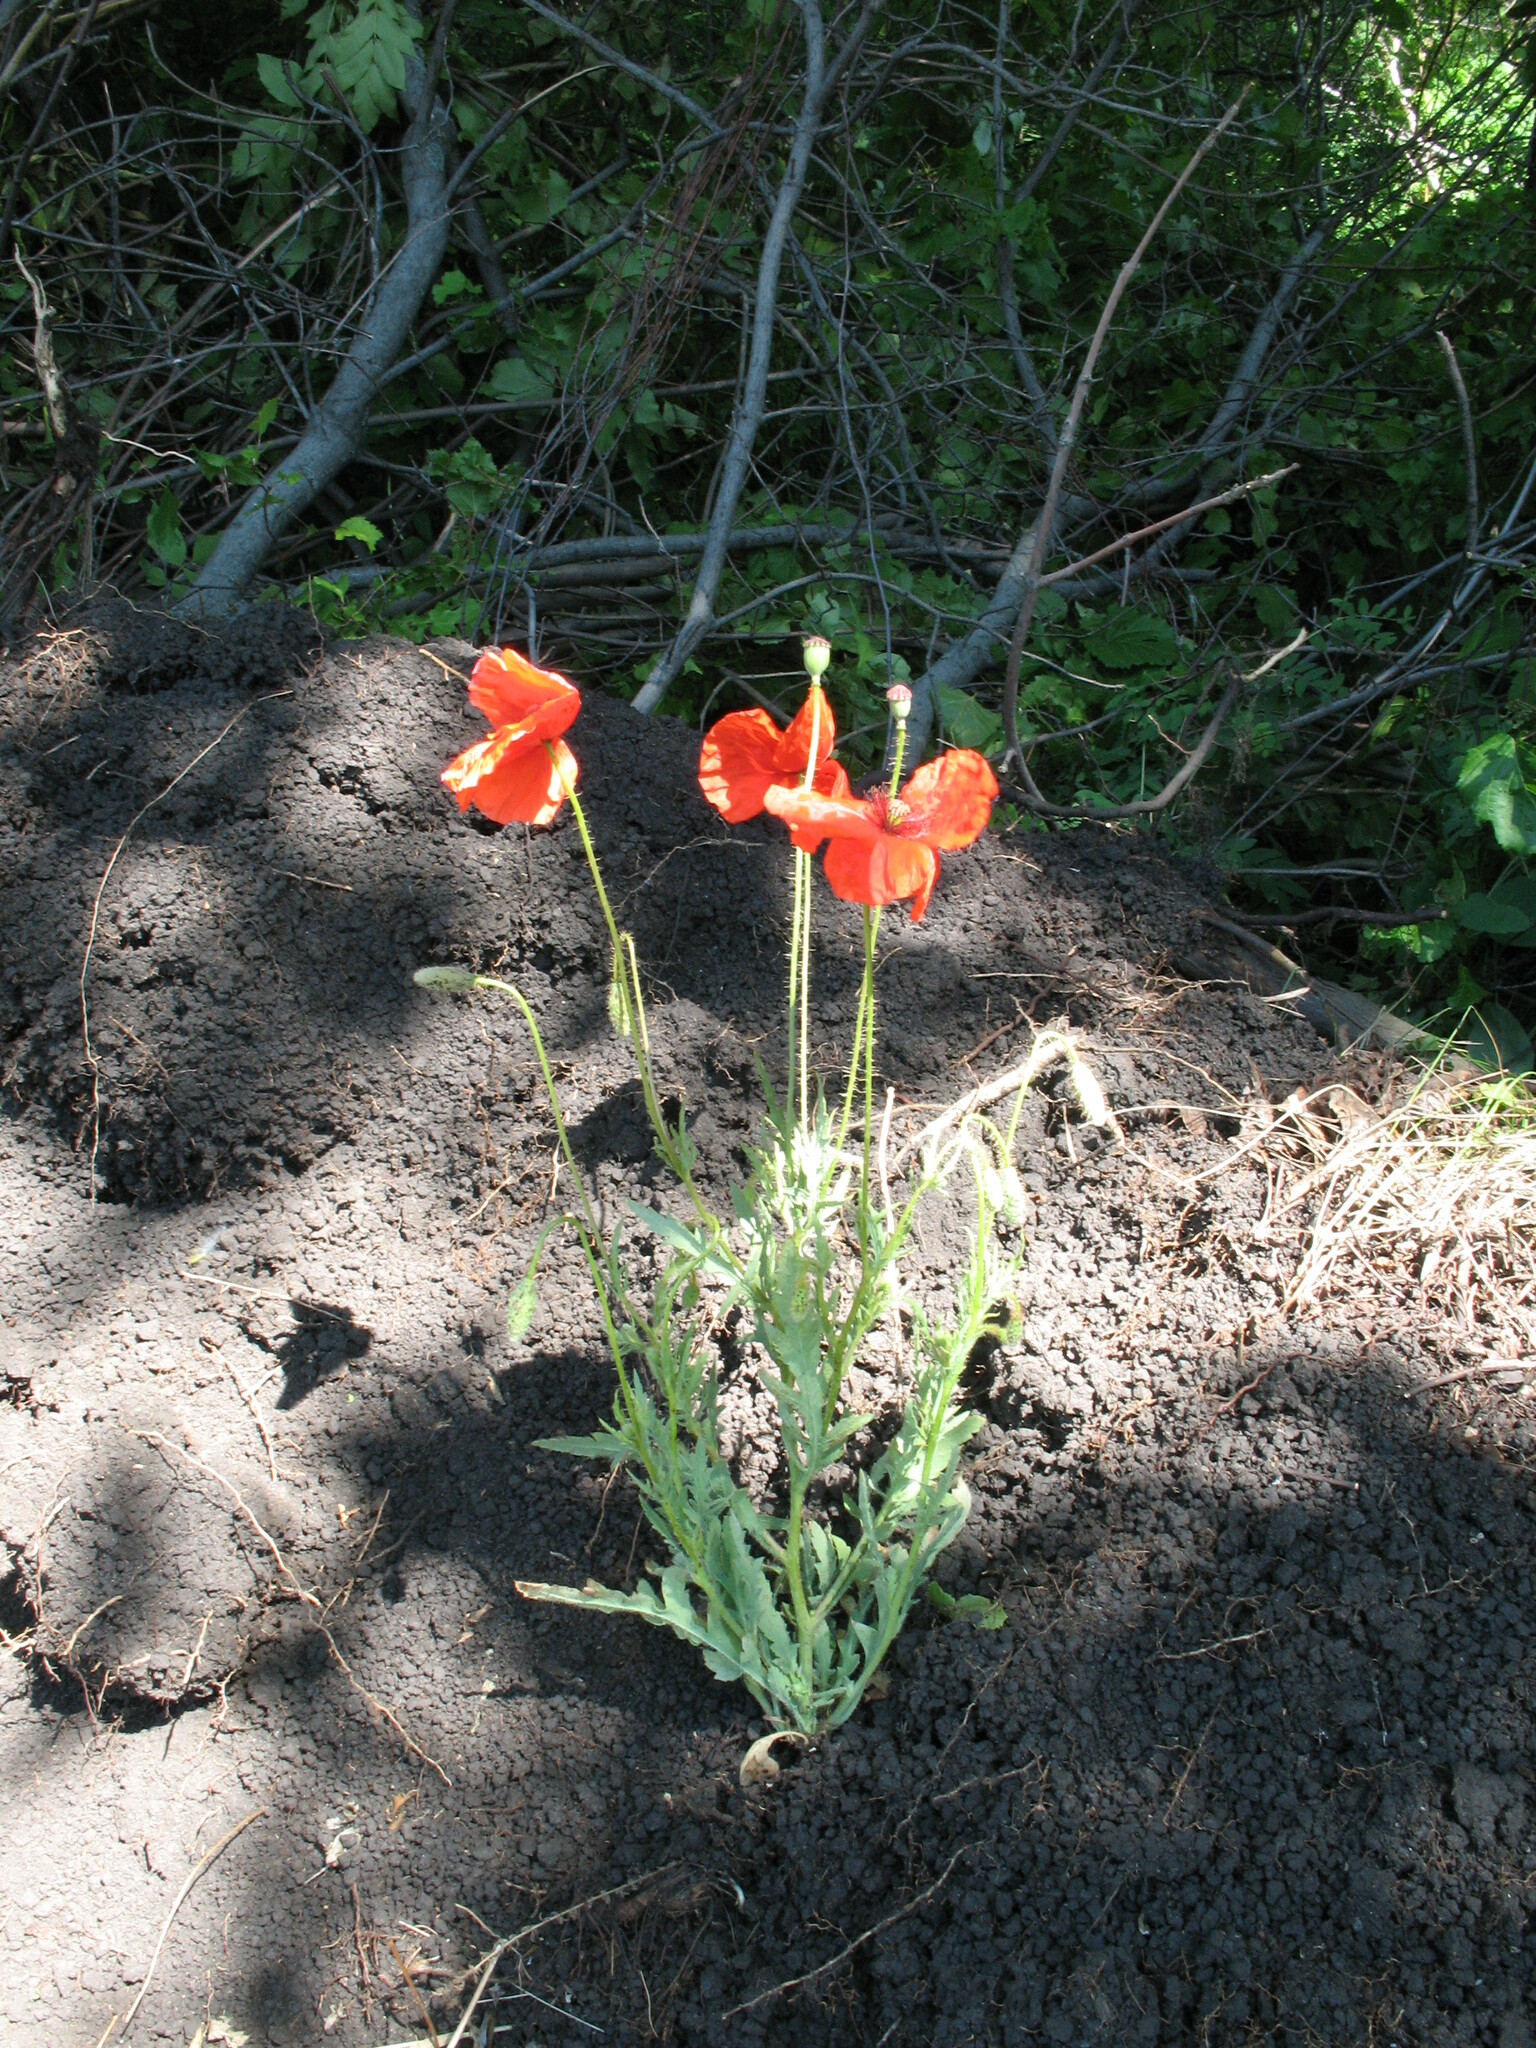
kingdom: Plantae
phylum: Tracheophyta
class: Magnoliopsida
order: Ranunculales
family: Papaveraceae
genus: Papaver
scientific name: Papaver rhoeas
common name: Corn poppy
